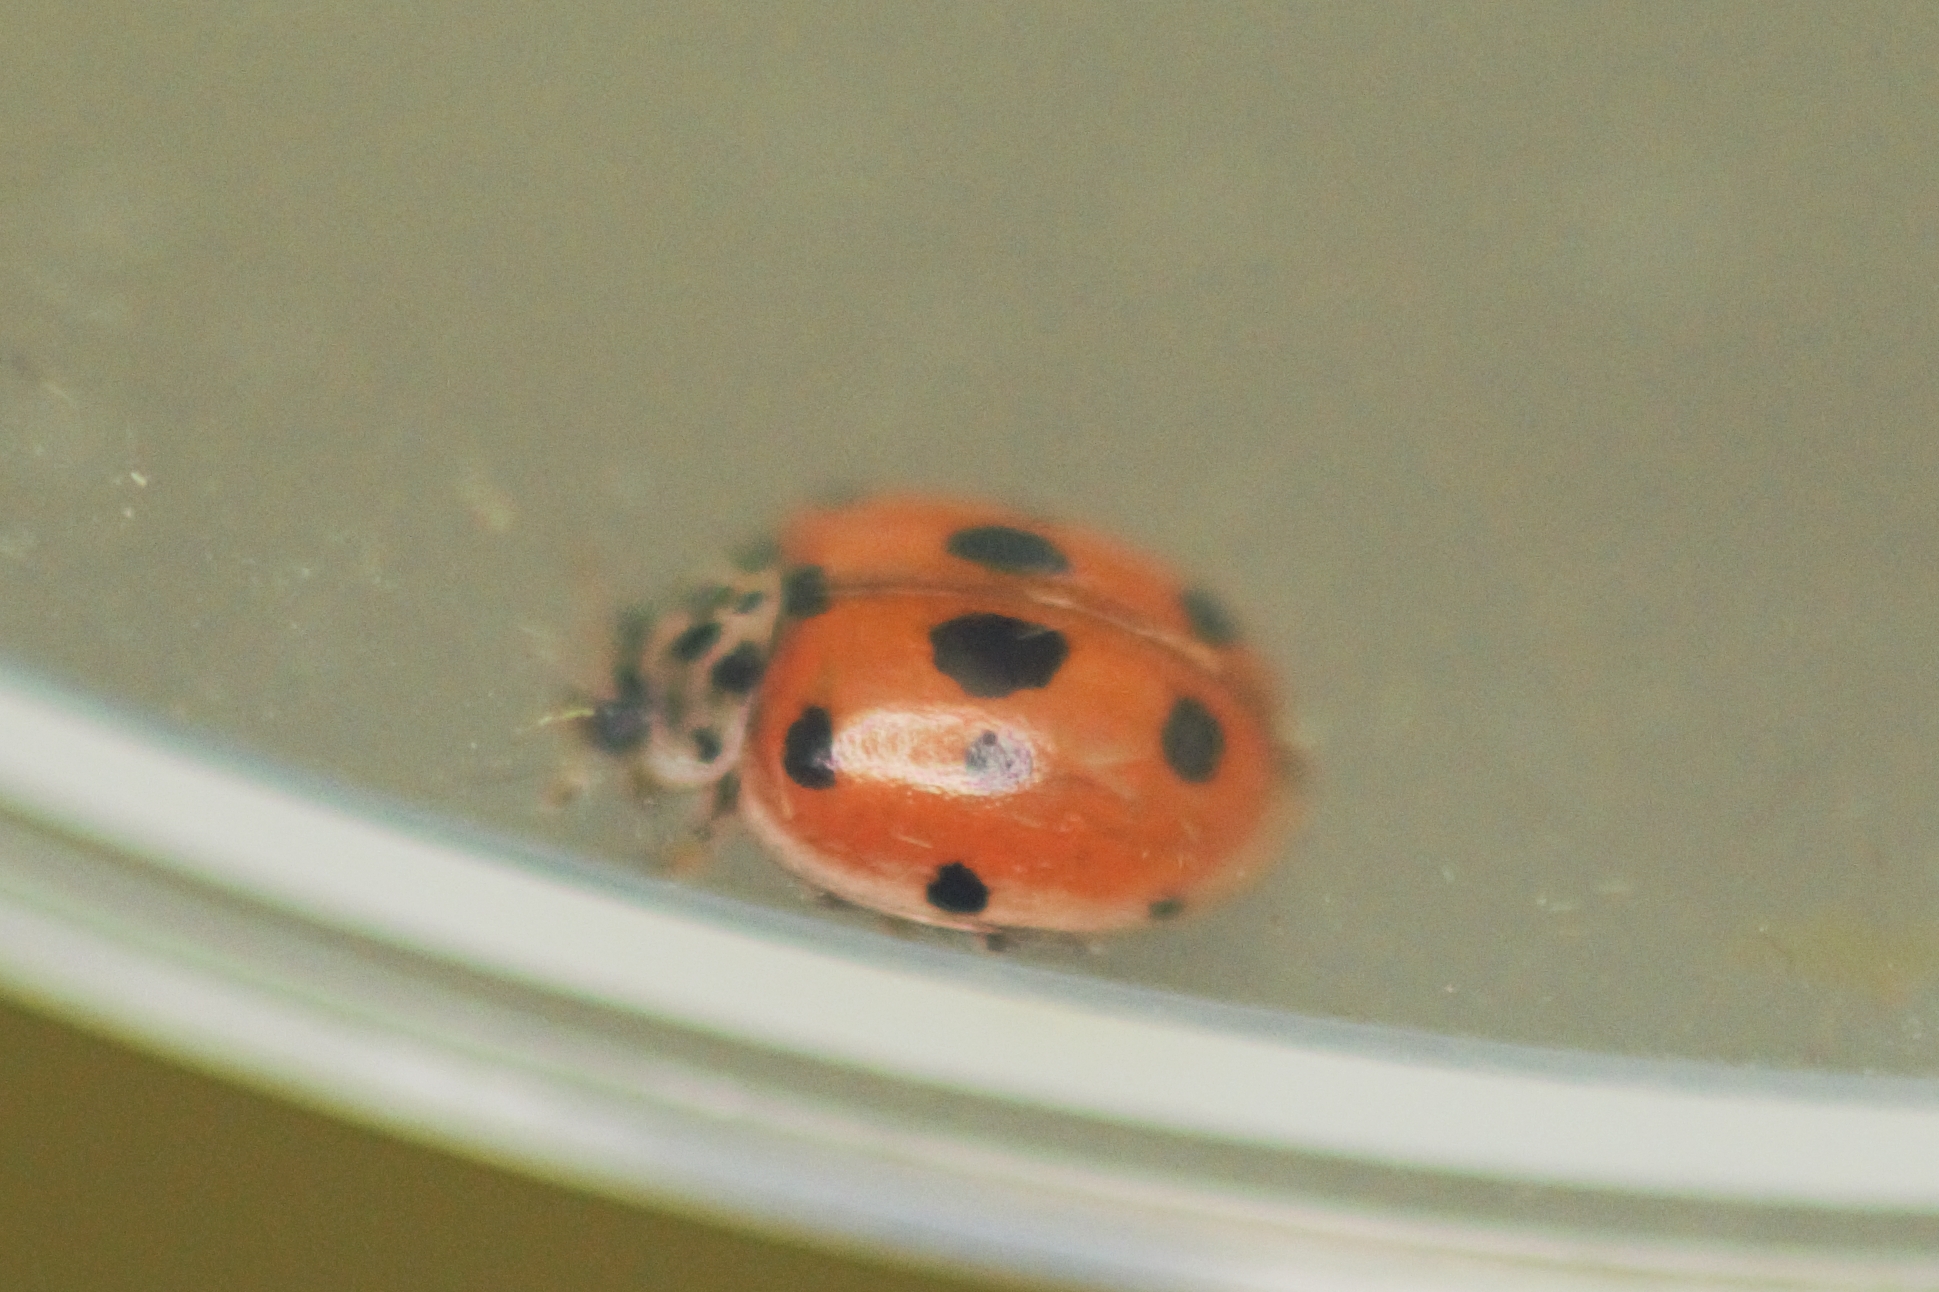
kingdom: Animalia
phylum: Arthropoda
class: Insecta
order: Coleoptera
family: Coccinellidae
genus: Adalia
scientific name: Adalia decempunctata
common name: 10-spot ladybird
